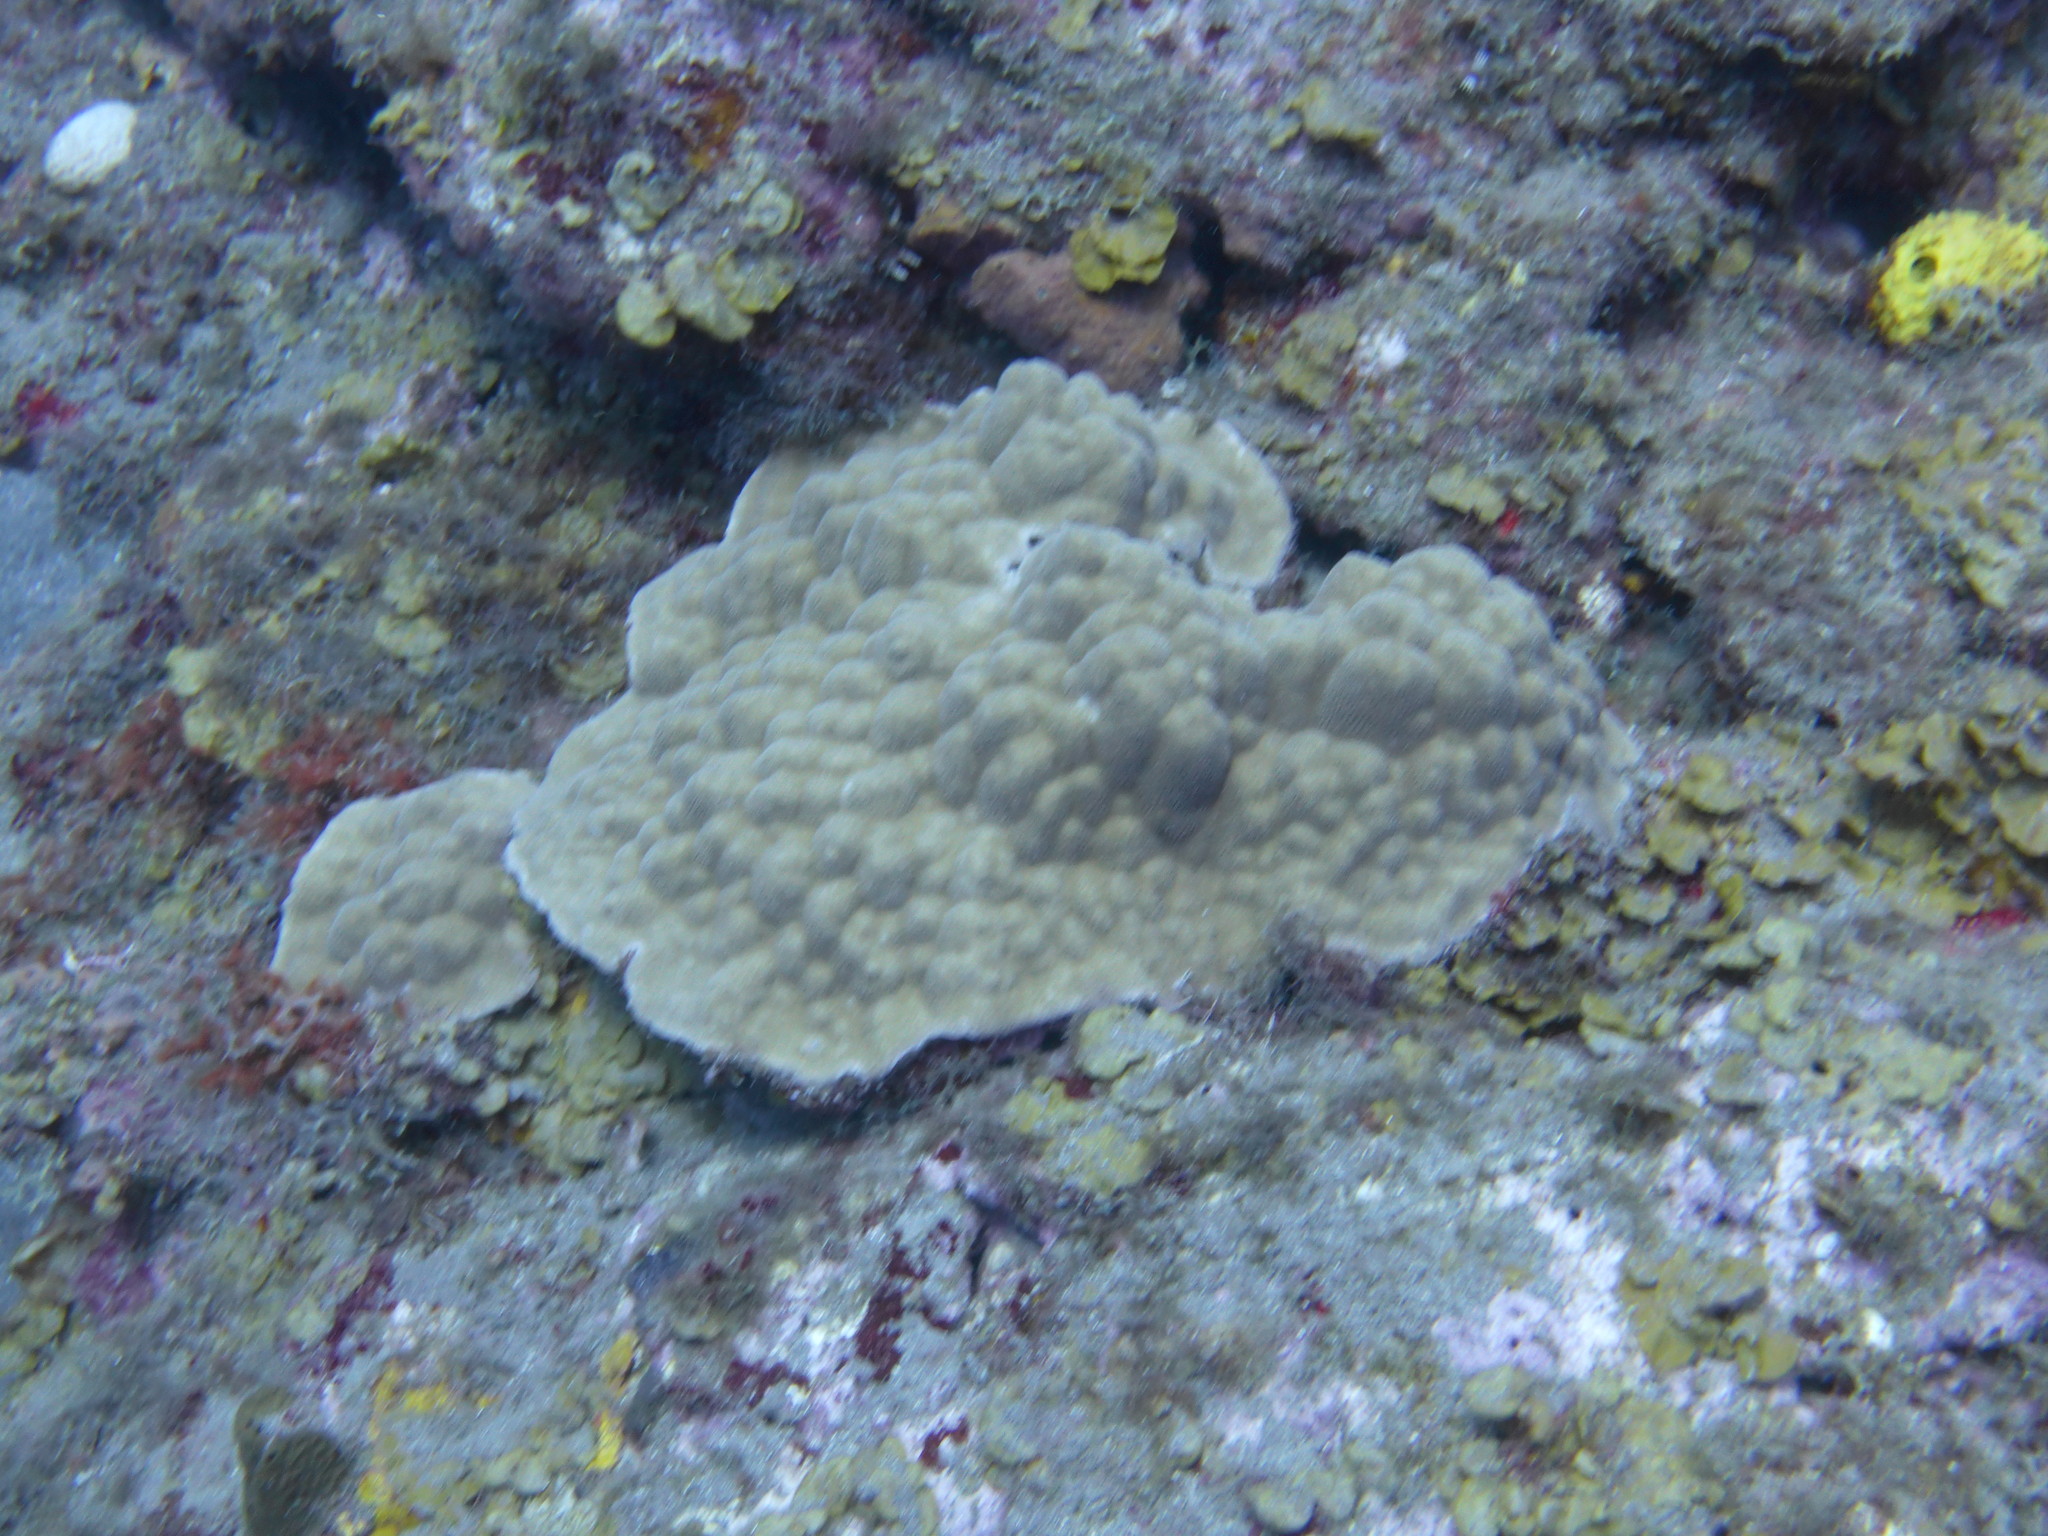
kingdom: Animalia
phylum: Cnidaria
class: Anthozoa
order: Scleractinia
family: Poritidae
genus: Porites
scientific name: Porites astreoides
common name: Mustard hill coral
